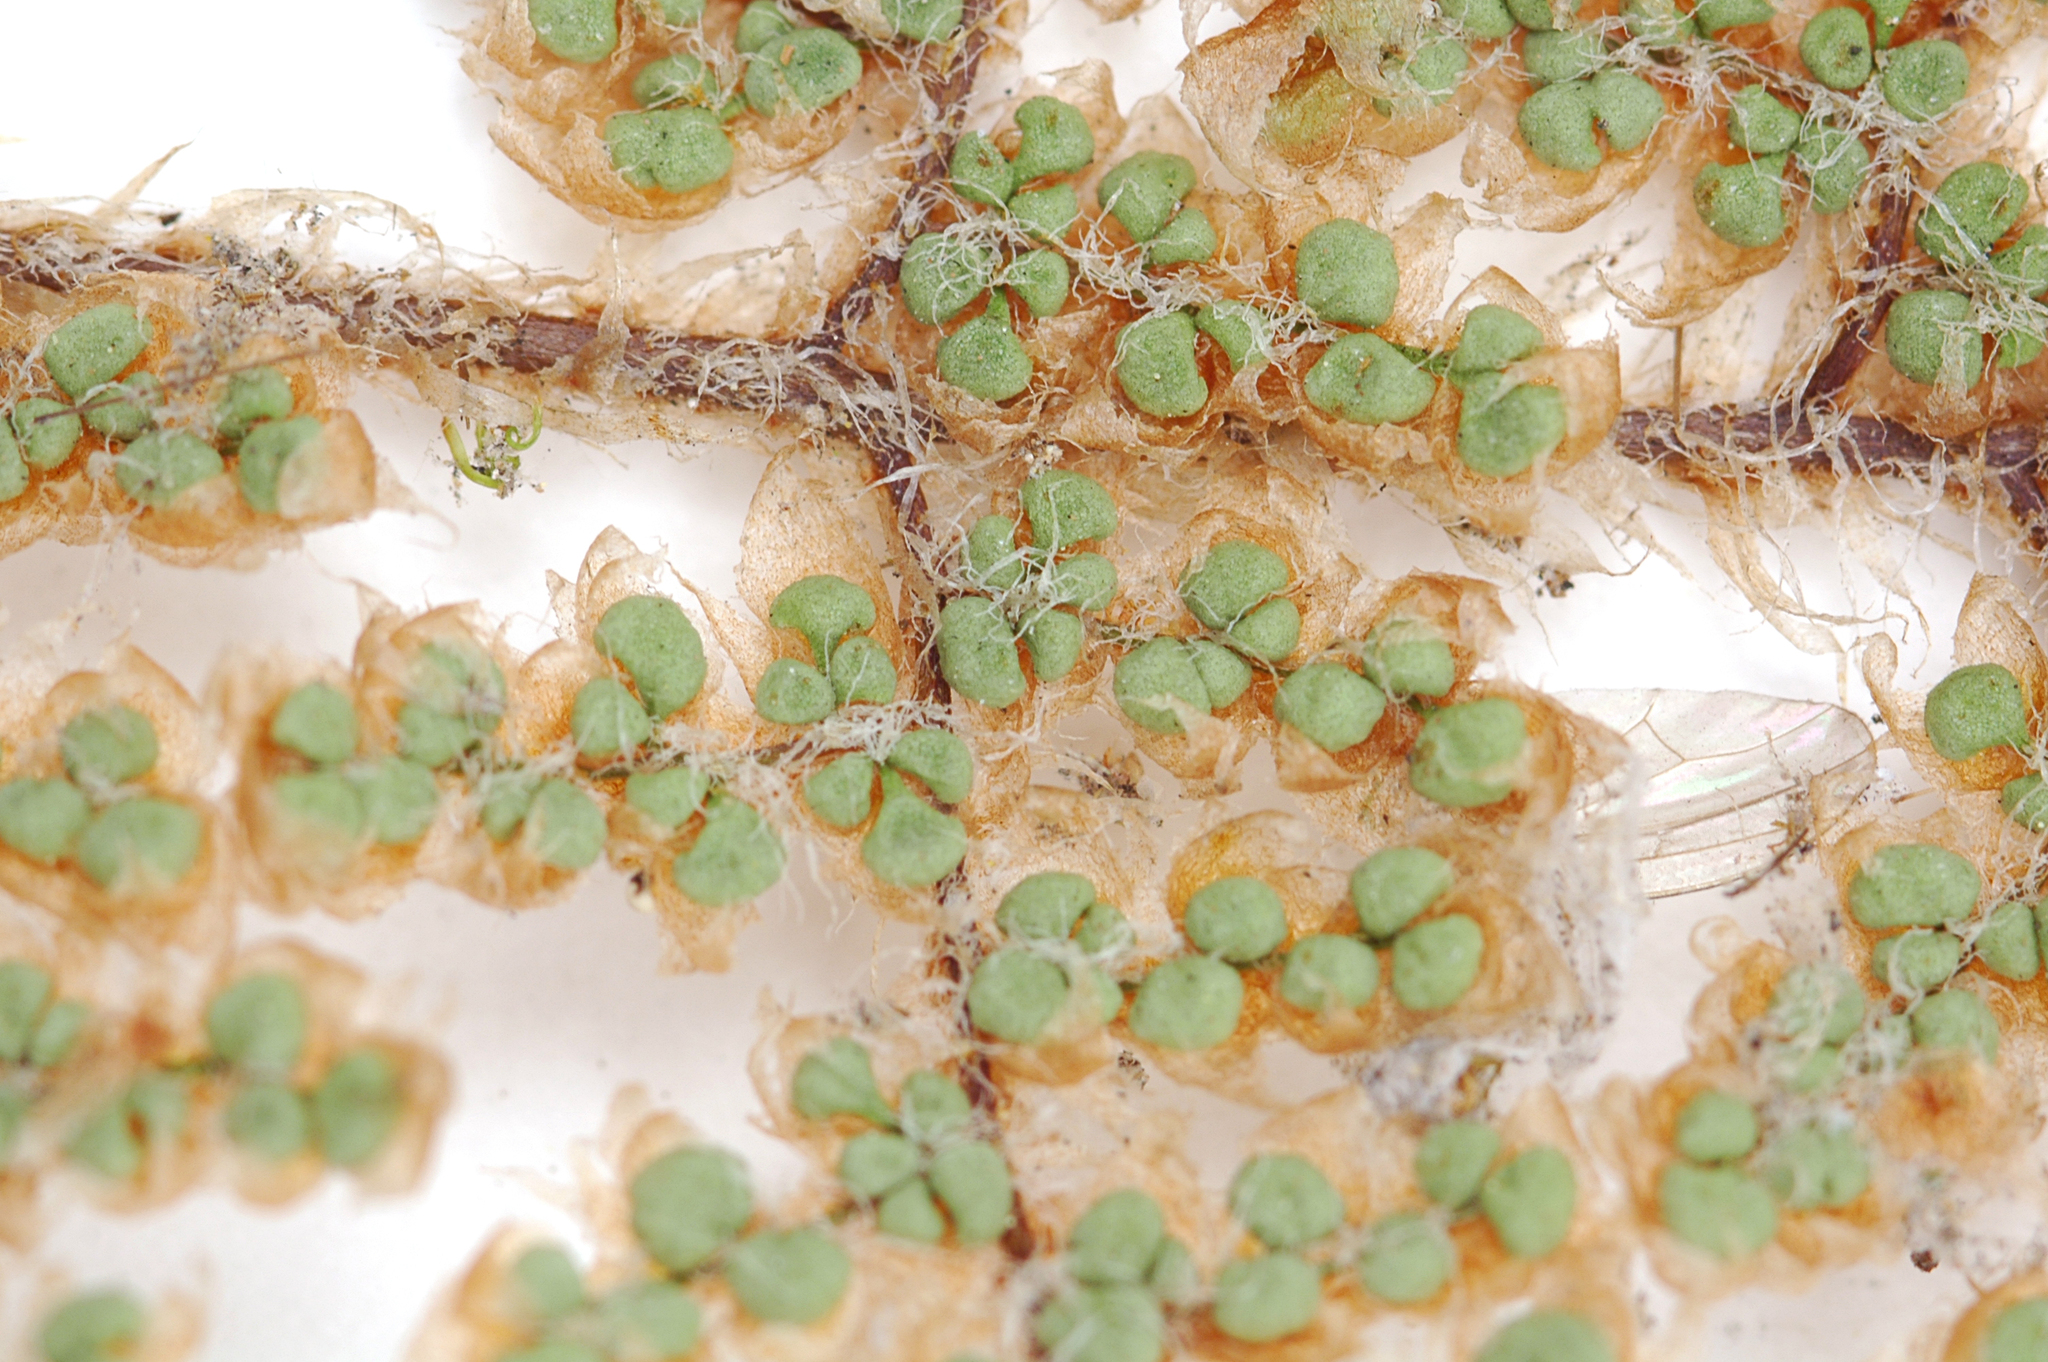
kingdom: Plantae
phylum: Tracheophyta
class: Polypodiopsida
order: Polypodiales
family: Pteridaceae
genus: Myriopteris
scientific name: Myriopteris covillei
